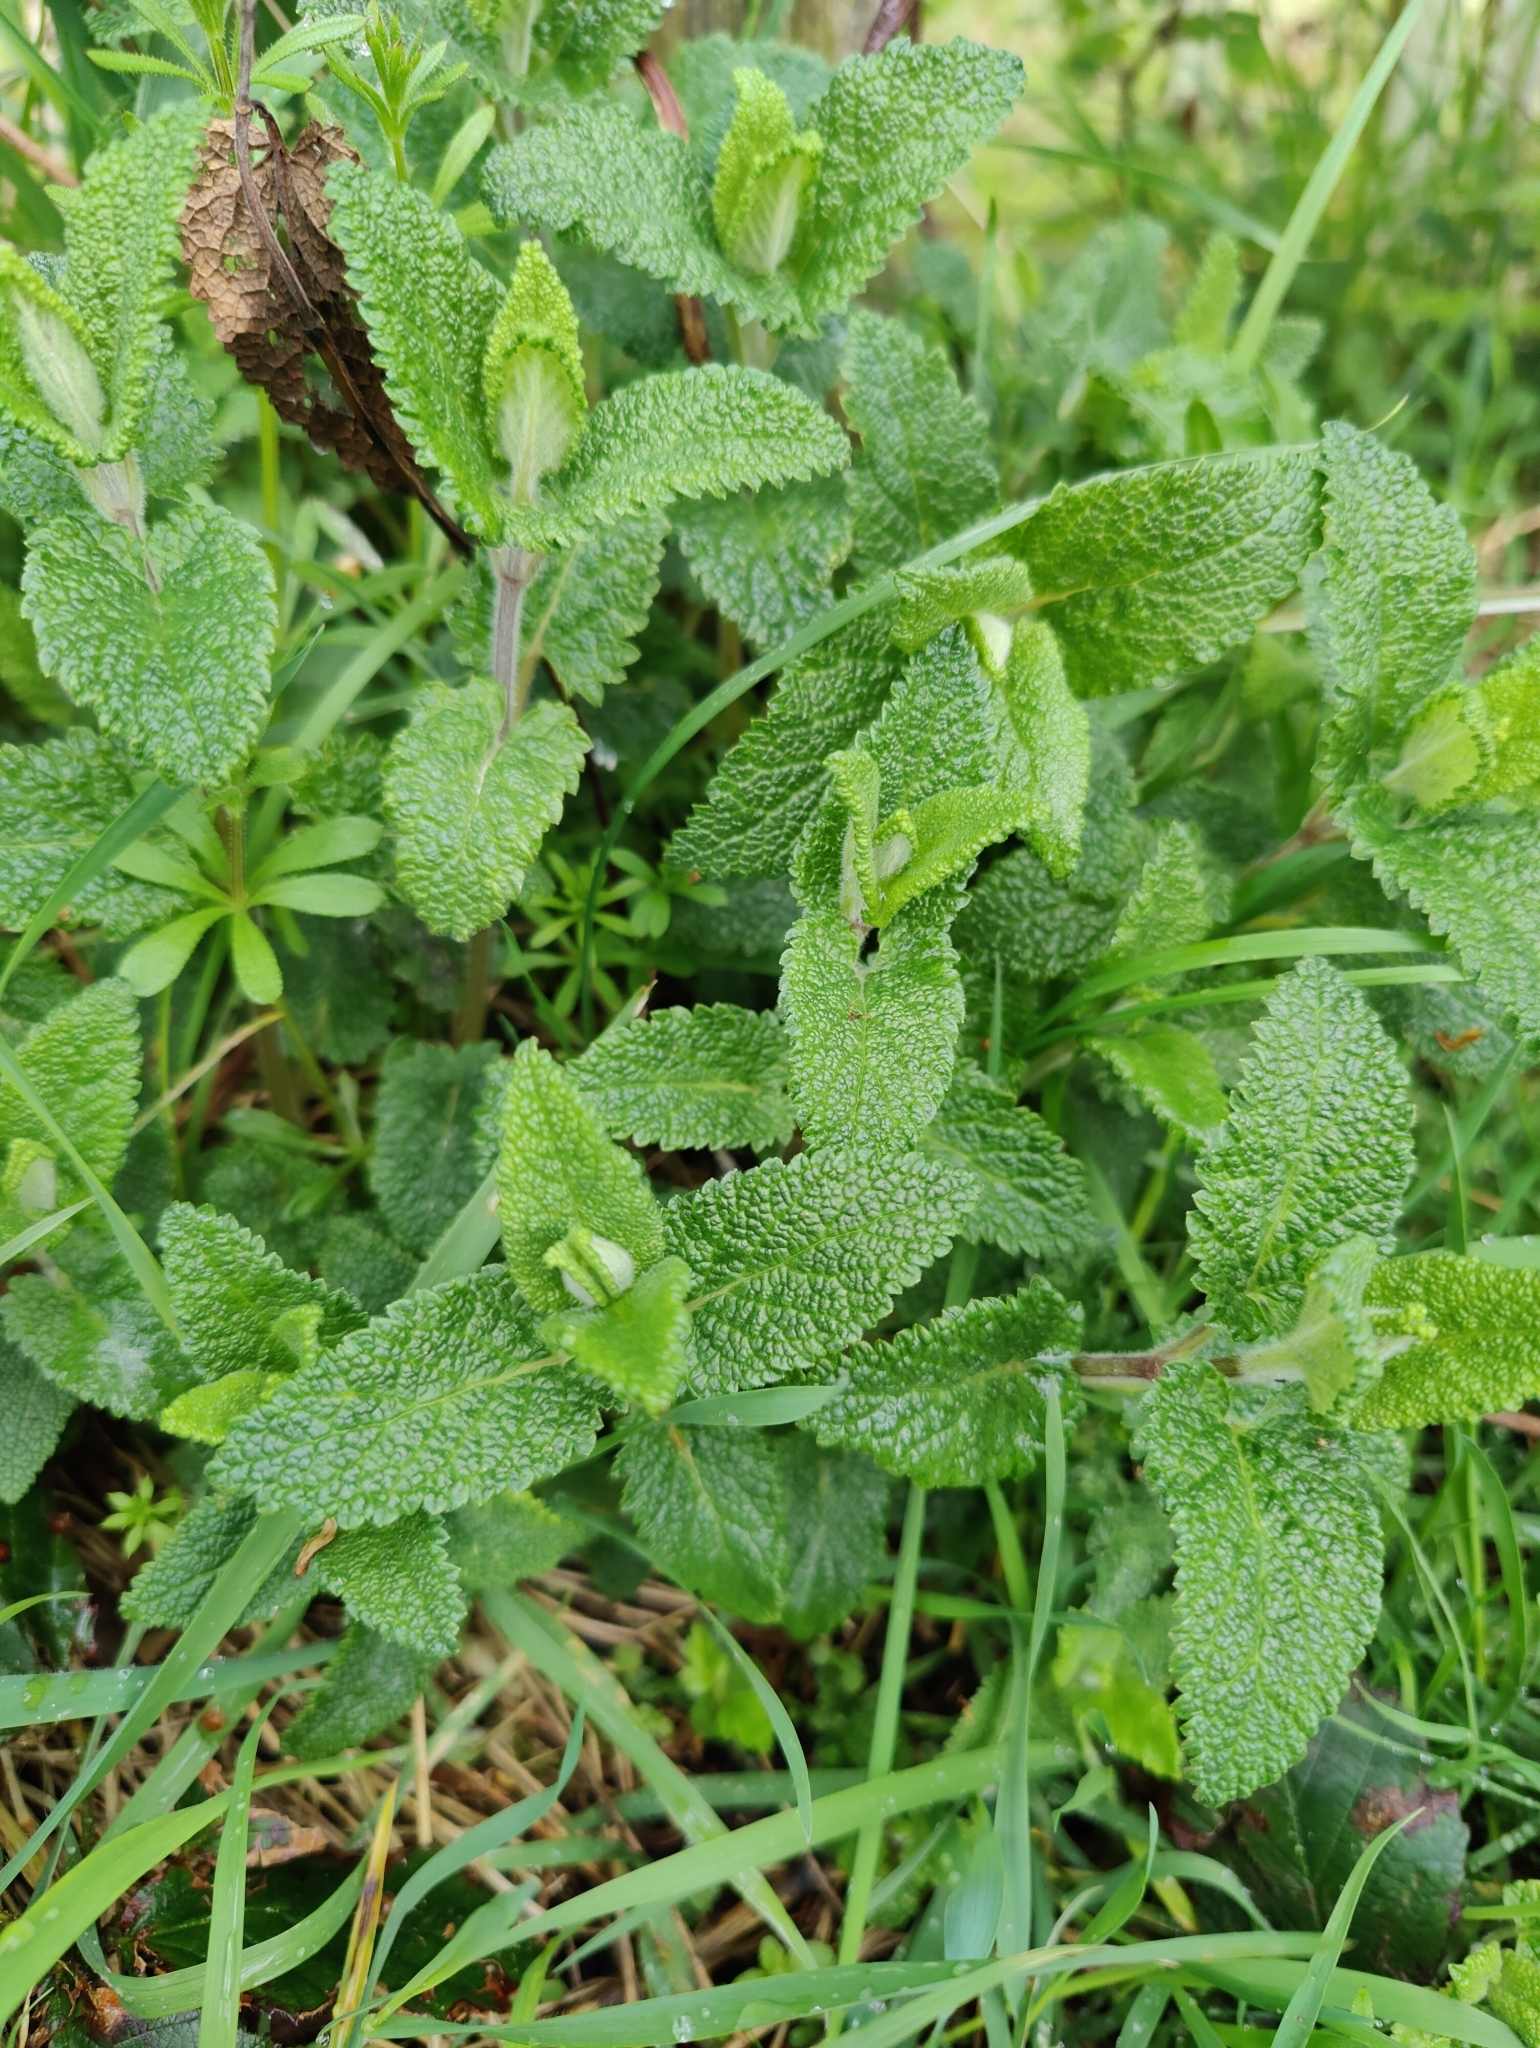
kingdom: Plantae
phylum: Tracheophyta
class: Magnoliopsida
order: Lamiales
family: Lamiaceae
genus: Teucrium
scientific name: Teucrium scorodonia
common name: Woodland germander
